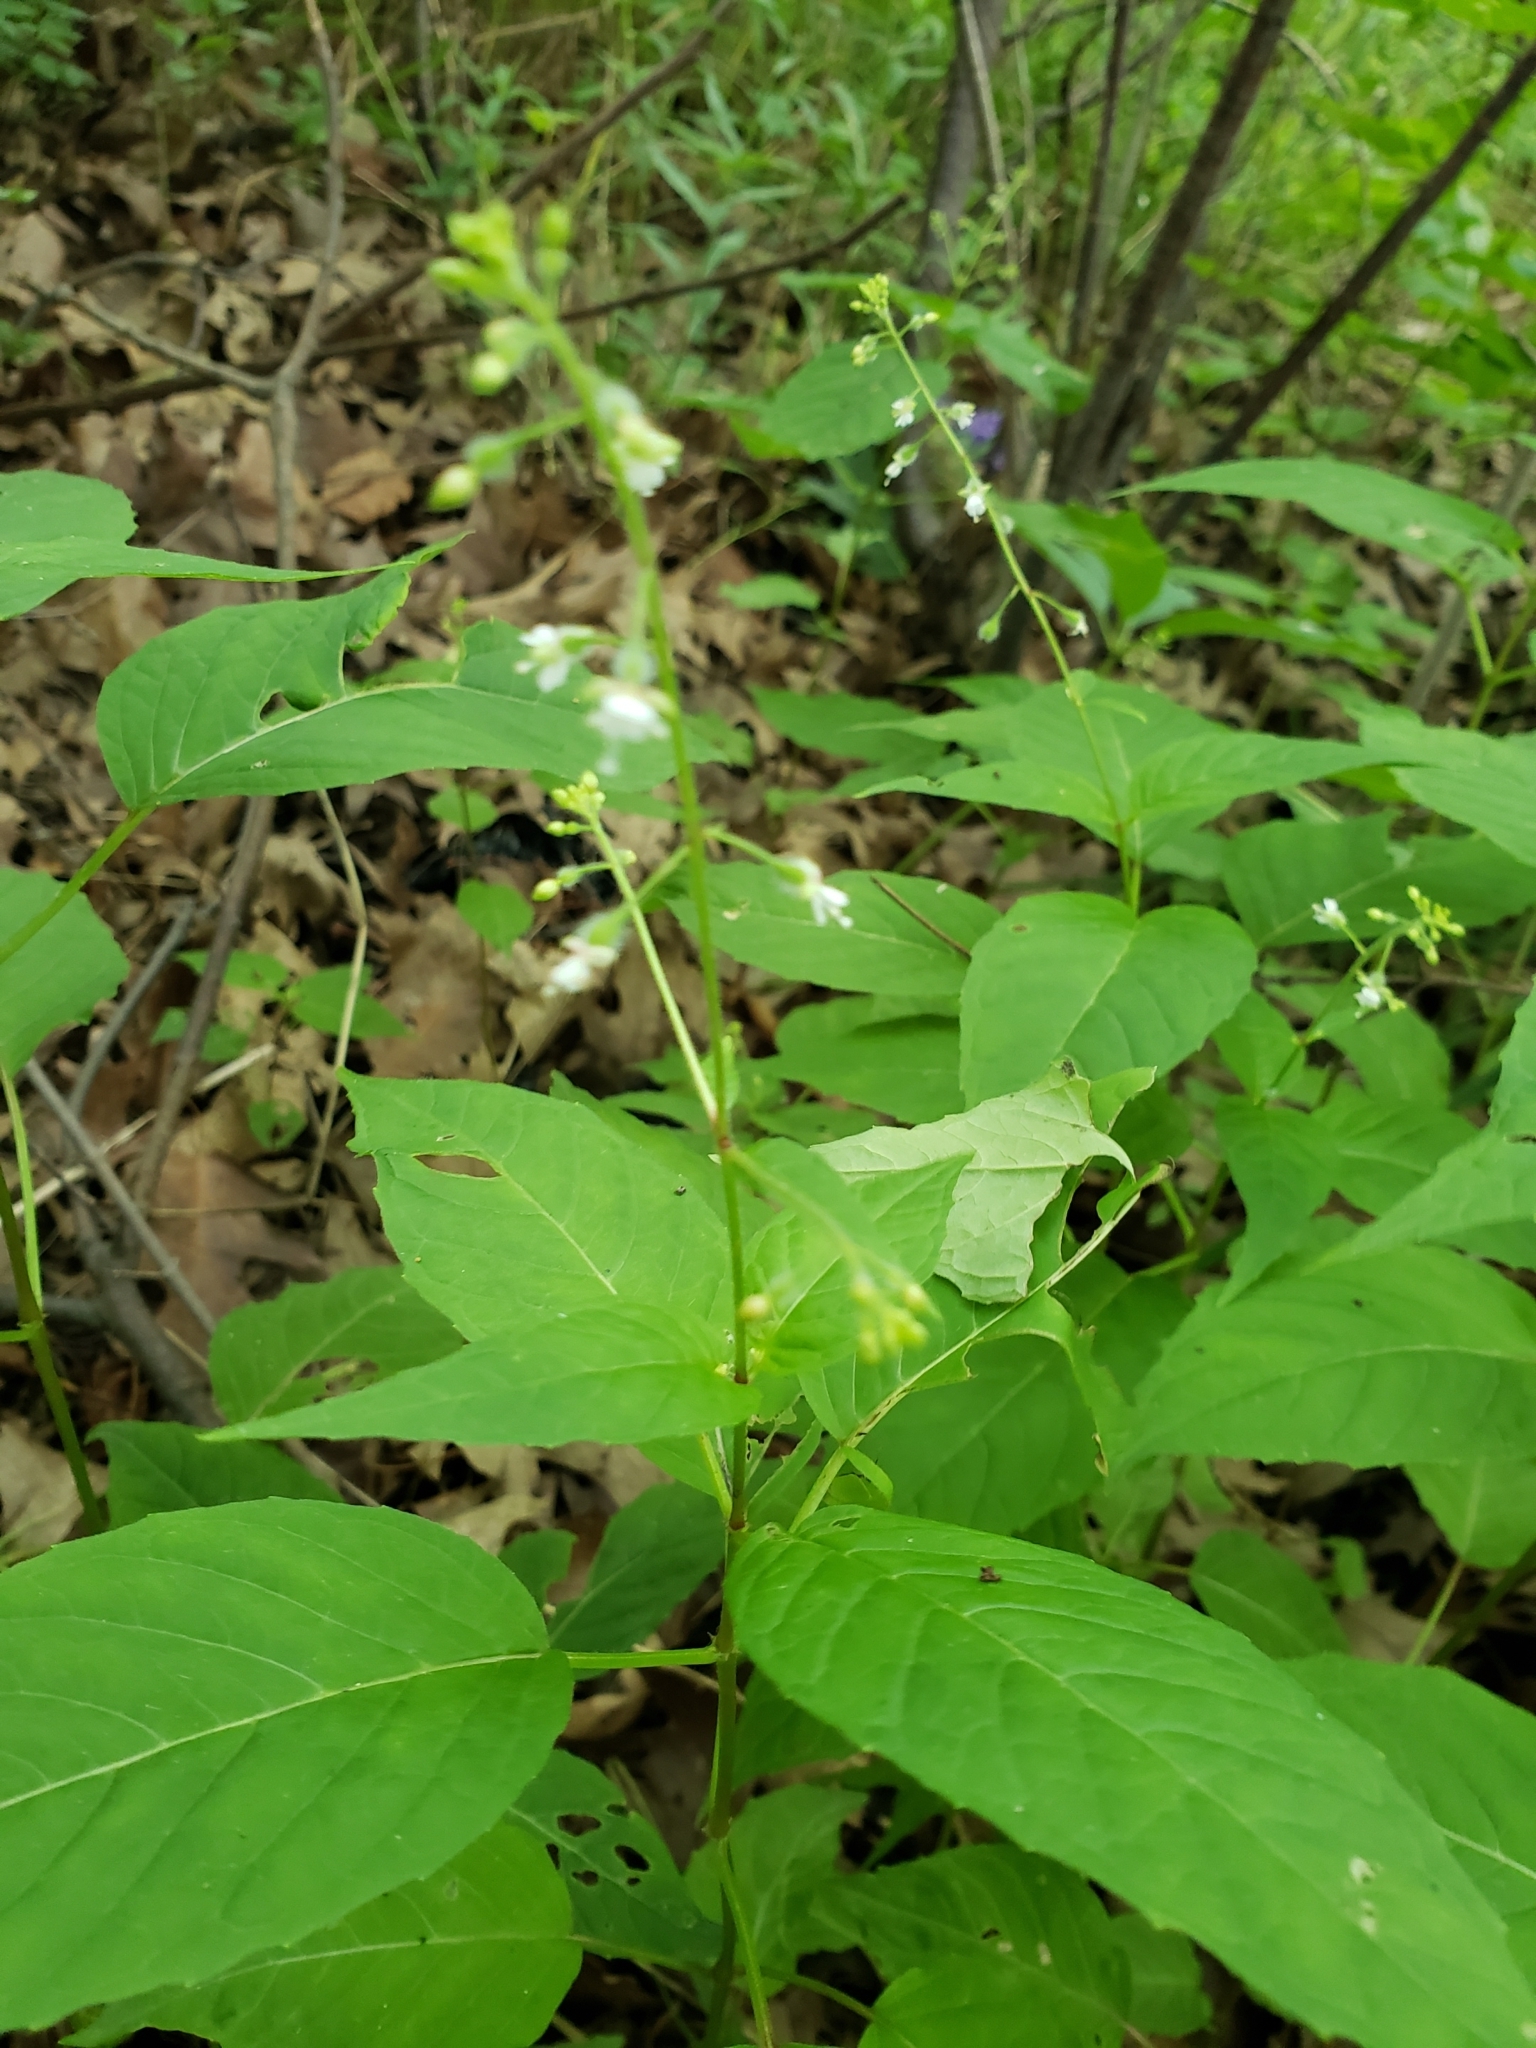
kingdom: Plantae
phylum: Tracheophyta
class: Magnoliopsida
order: Myrtales
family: Onagraceae
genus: Circaea
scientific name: Circaea canadensis
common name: Broad-leaved enchanter's nightshade
